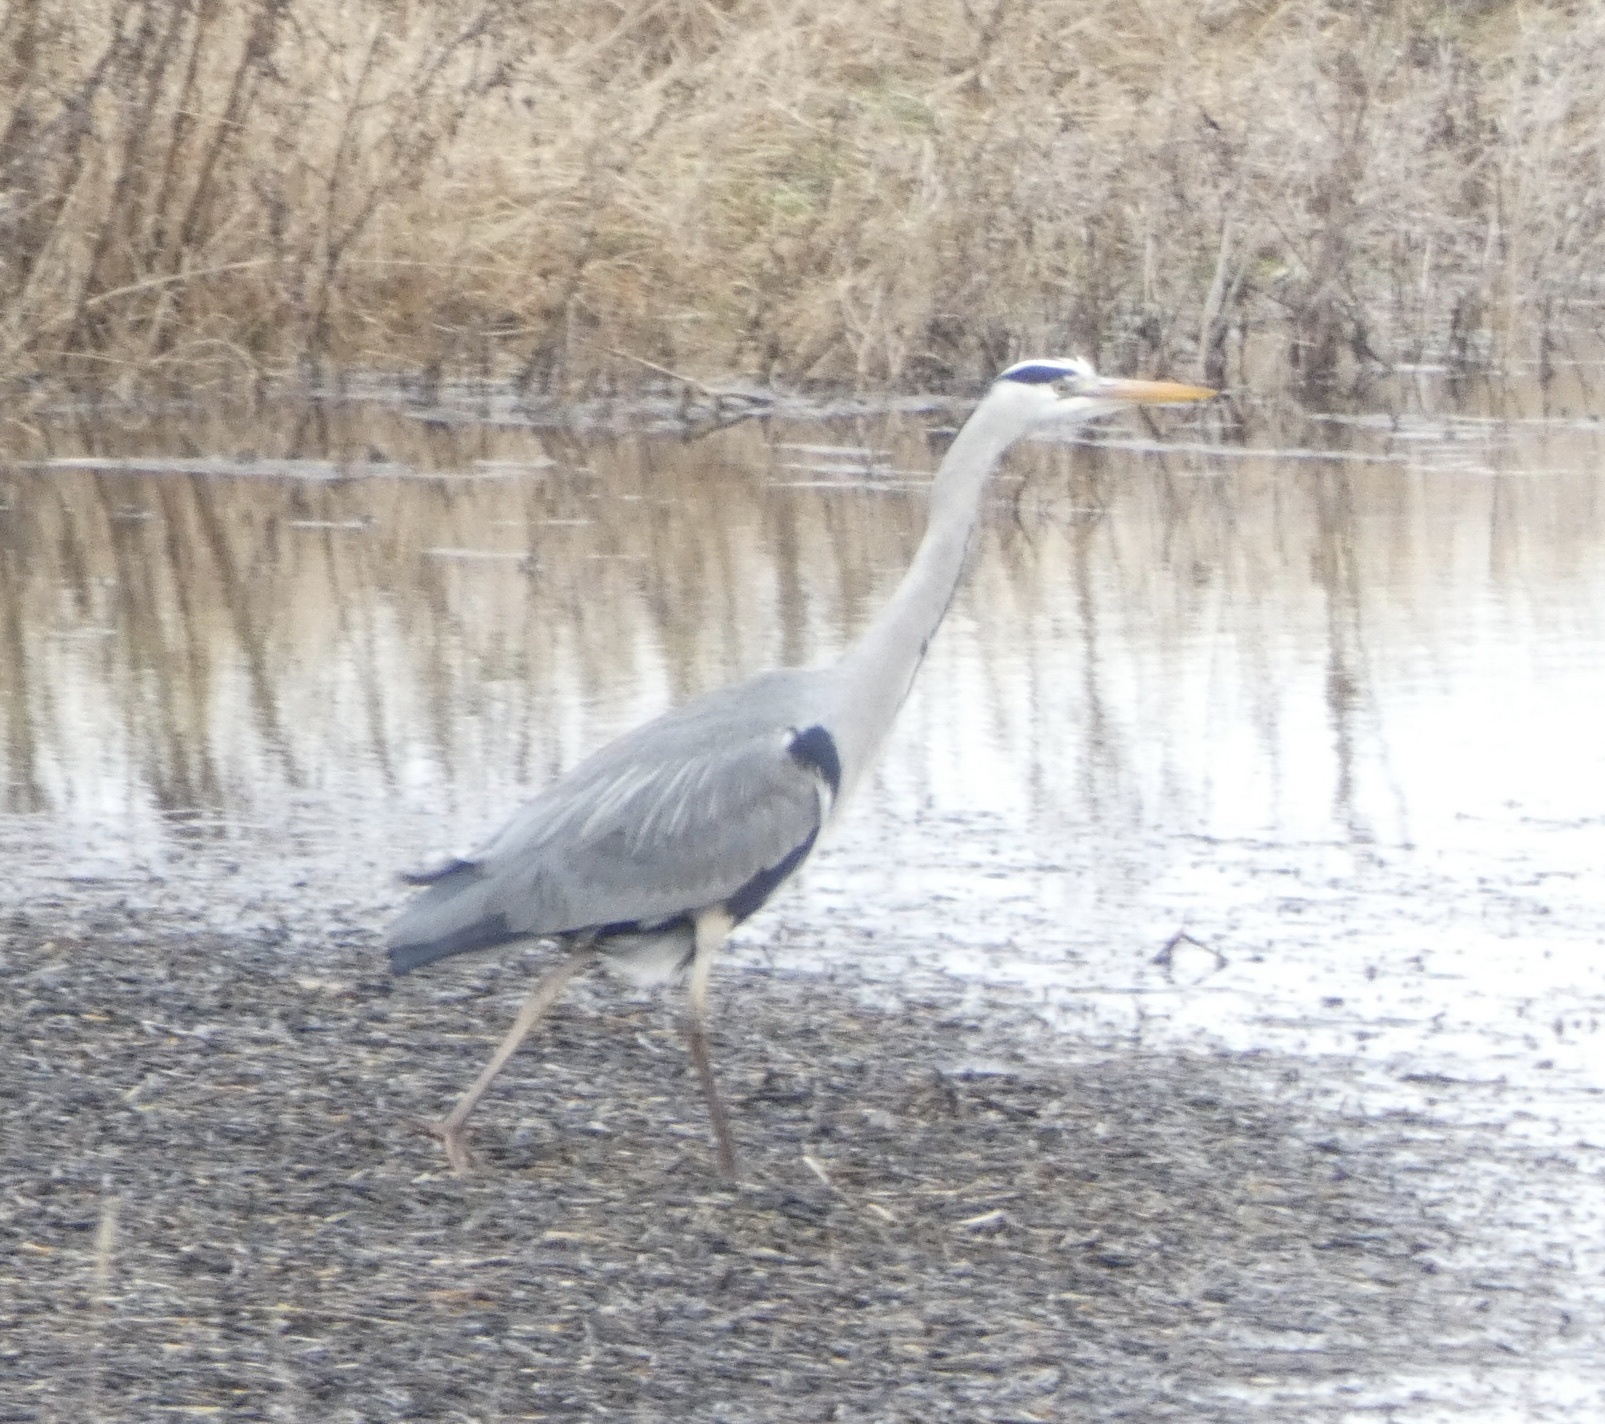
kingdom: Animalia
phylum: Chordata
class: Aves
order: Pelecaniformes
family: Ardeidae
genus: Ardea
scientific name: Ardea cinerea
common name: Grey heron
